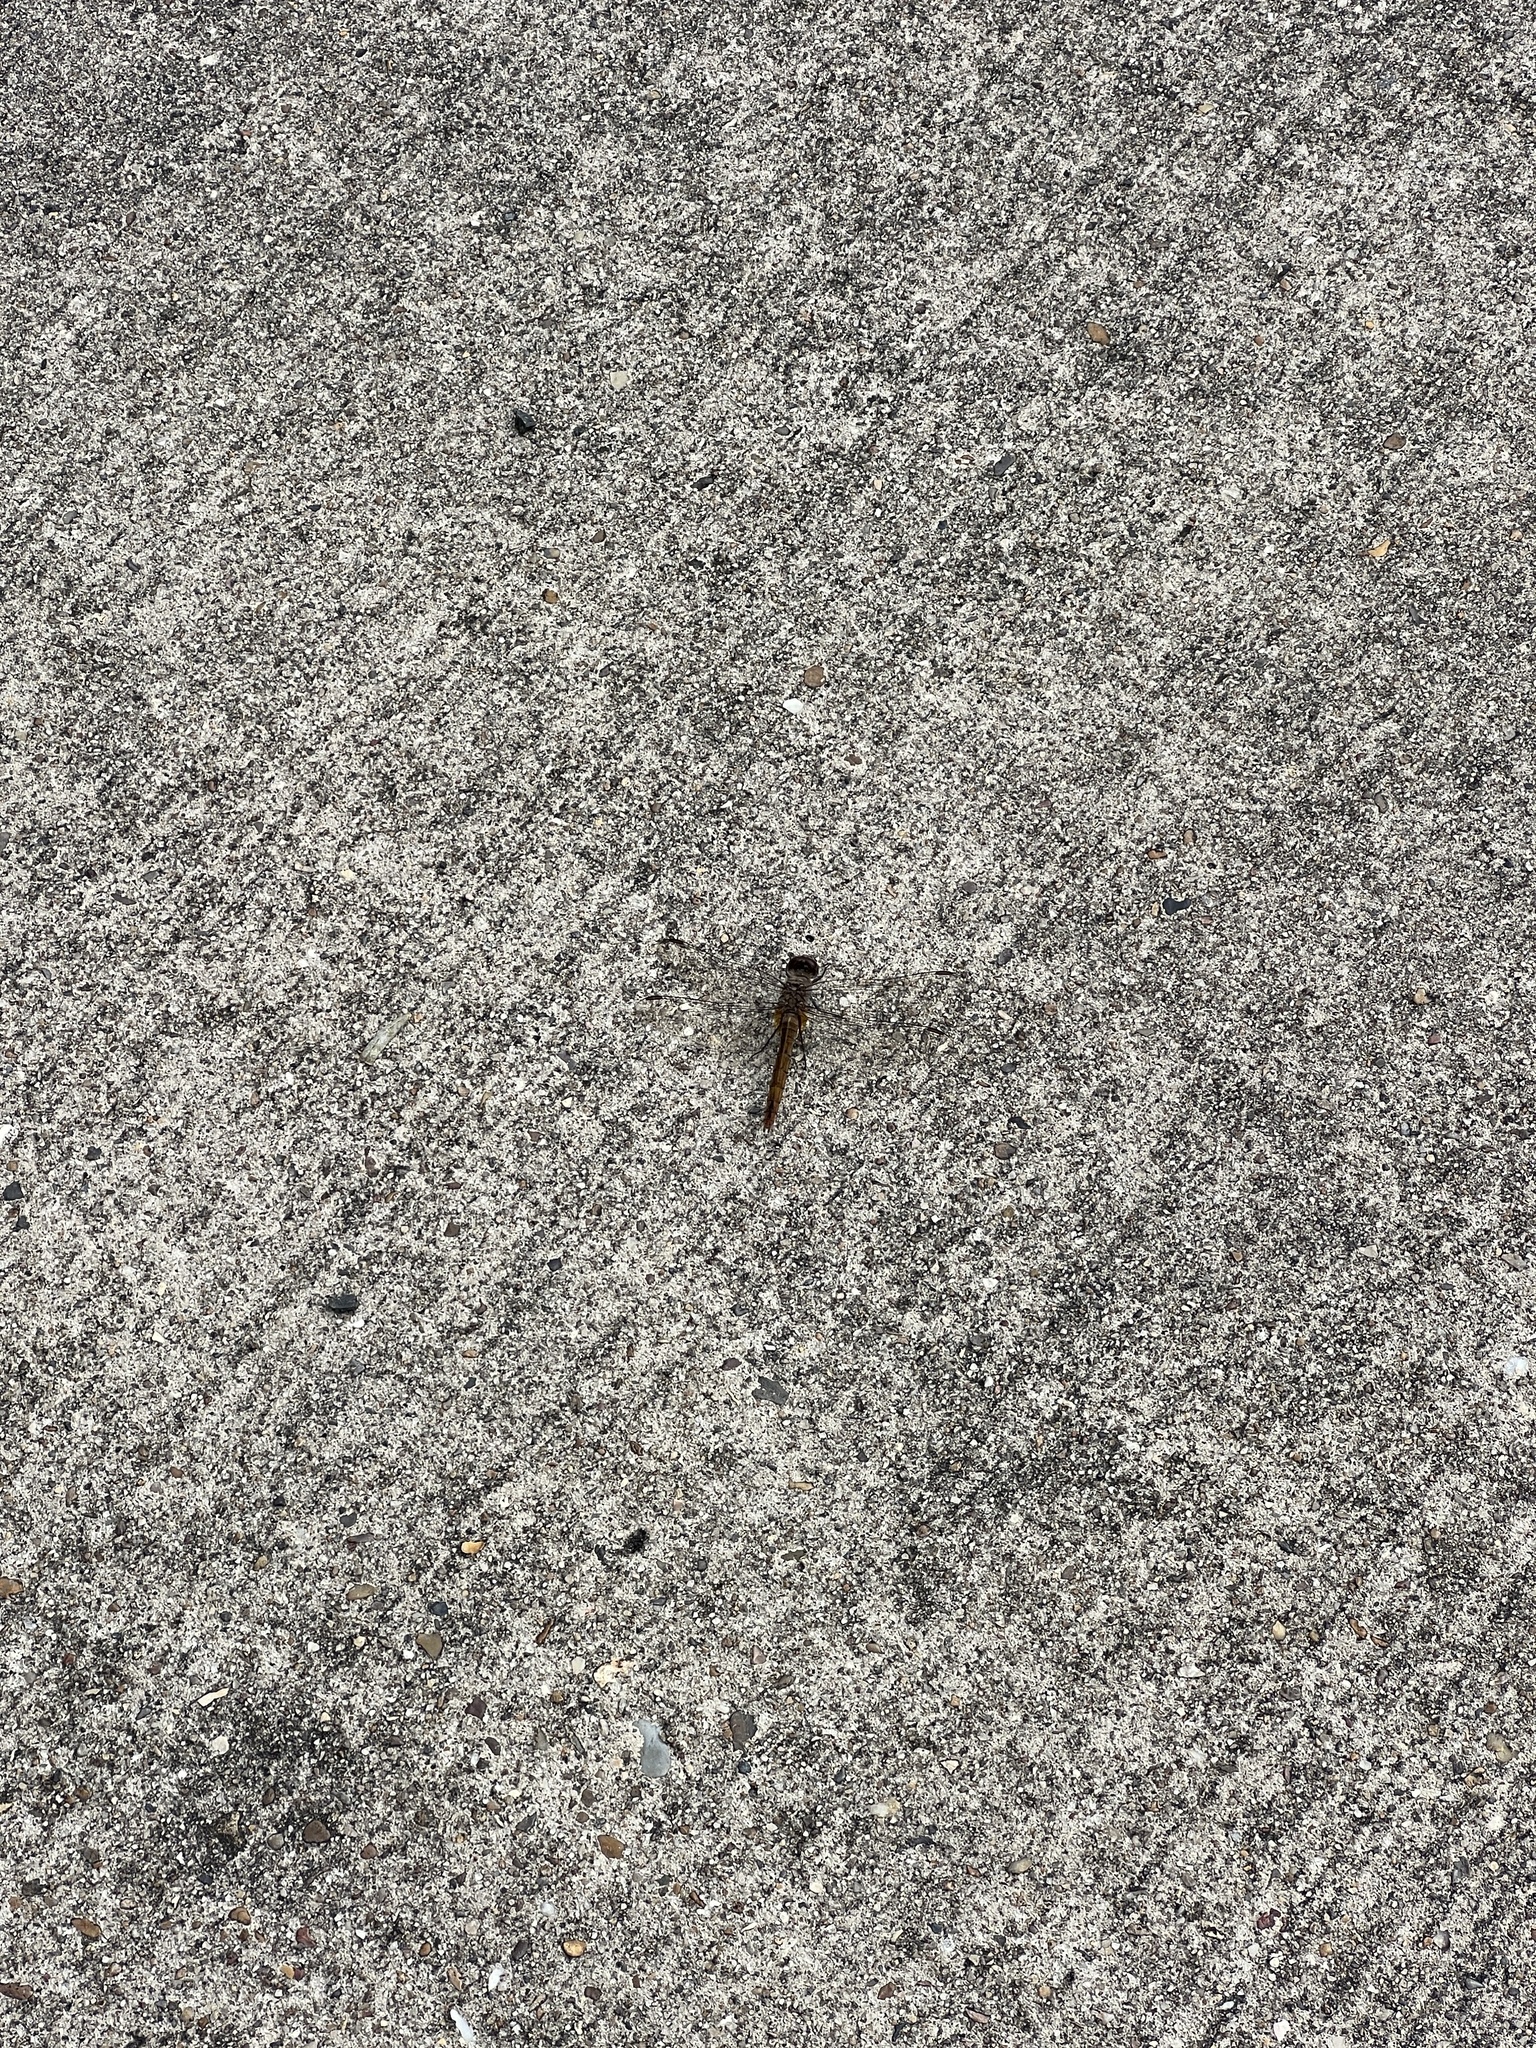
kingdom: Animalia
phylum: Arthropoda
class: Insecta
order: Odonata
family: Libellulidae
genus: Brachymesia
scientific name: Brachymesia furcata
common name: Red-taled pennant
